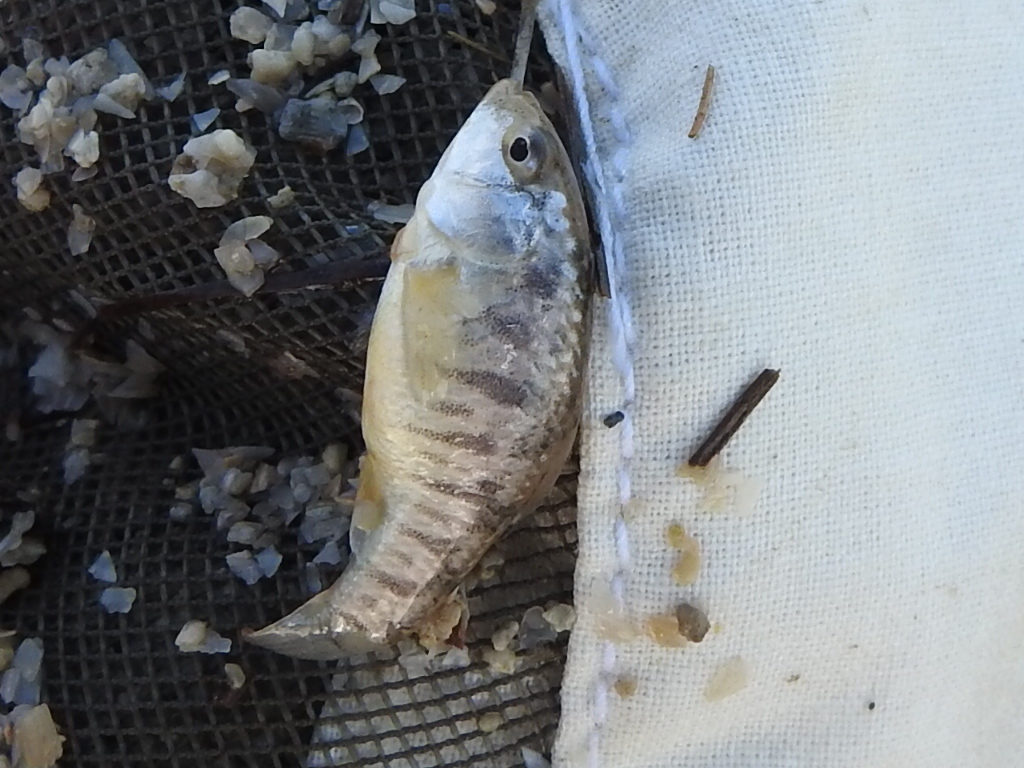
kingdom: Animalia
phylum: Chordata
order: Cyprinodontiformes
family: Cyprinodontidae
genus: Cyprinodon
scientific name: Cyprinodon variegatus
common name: Sheepshead minnow
